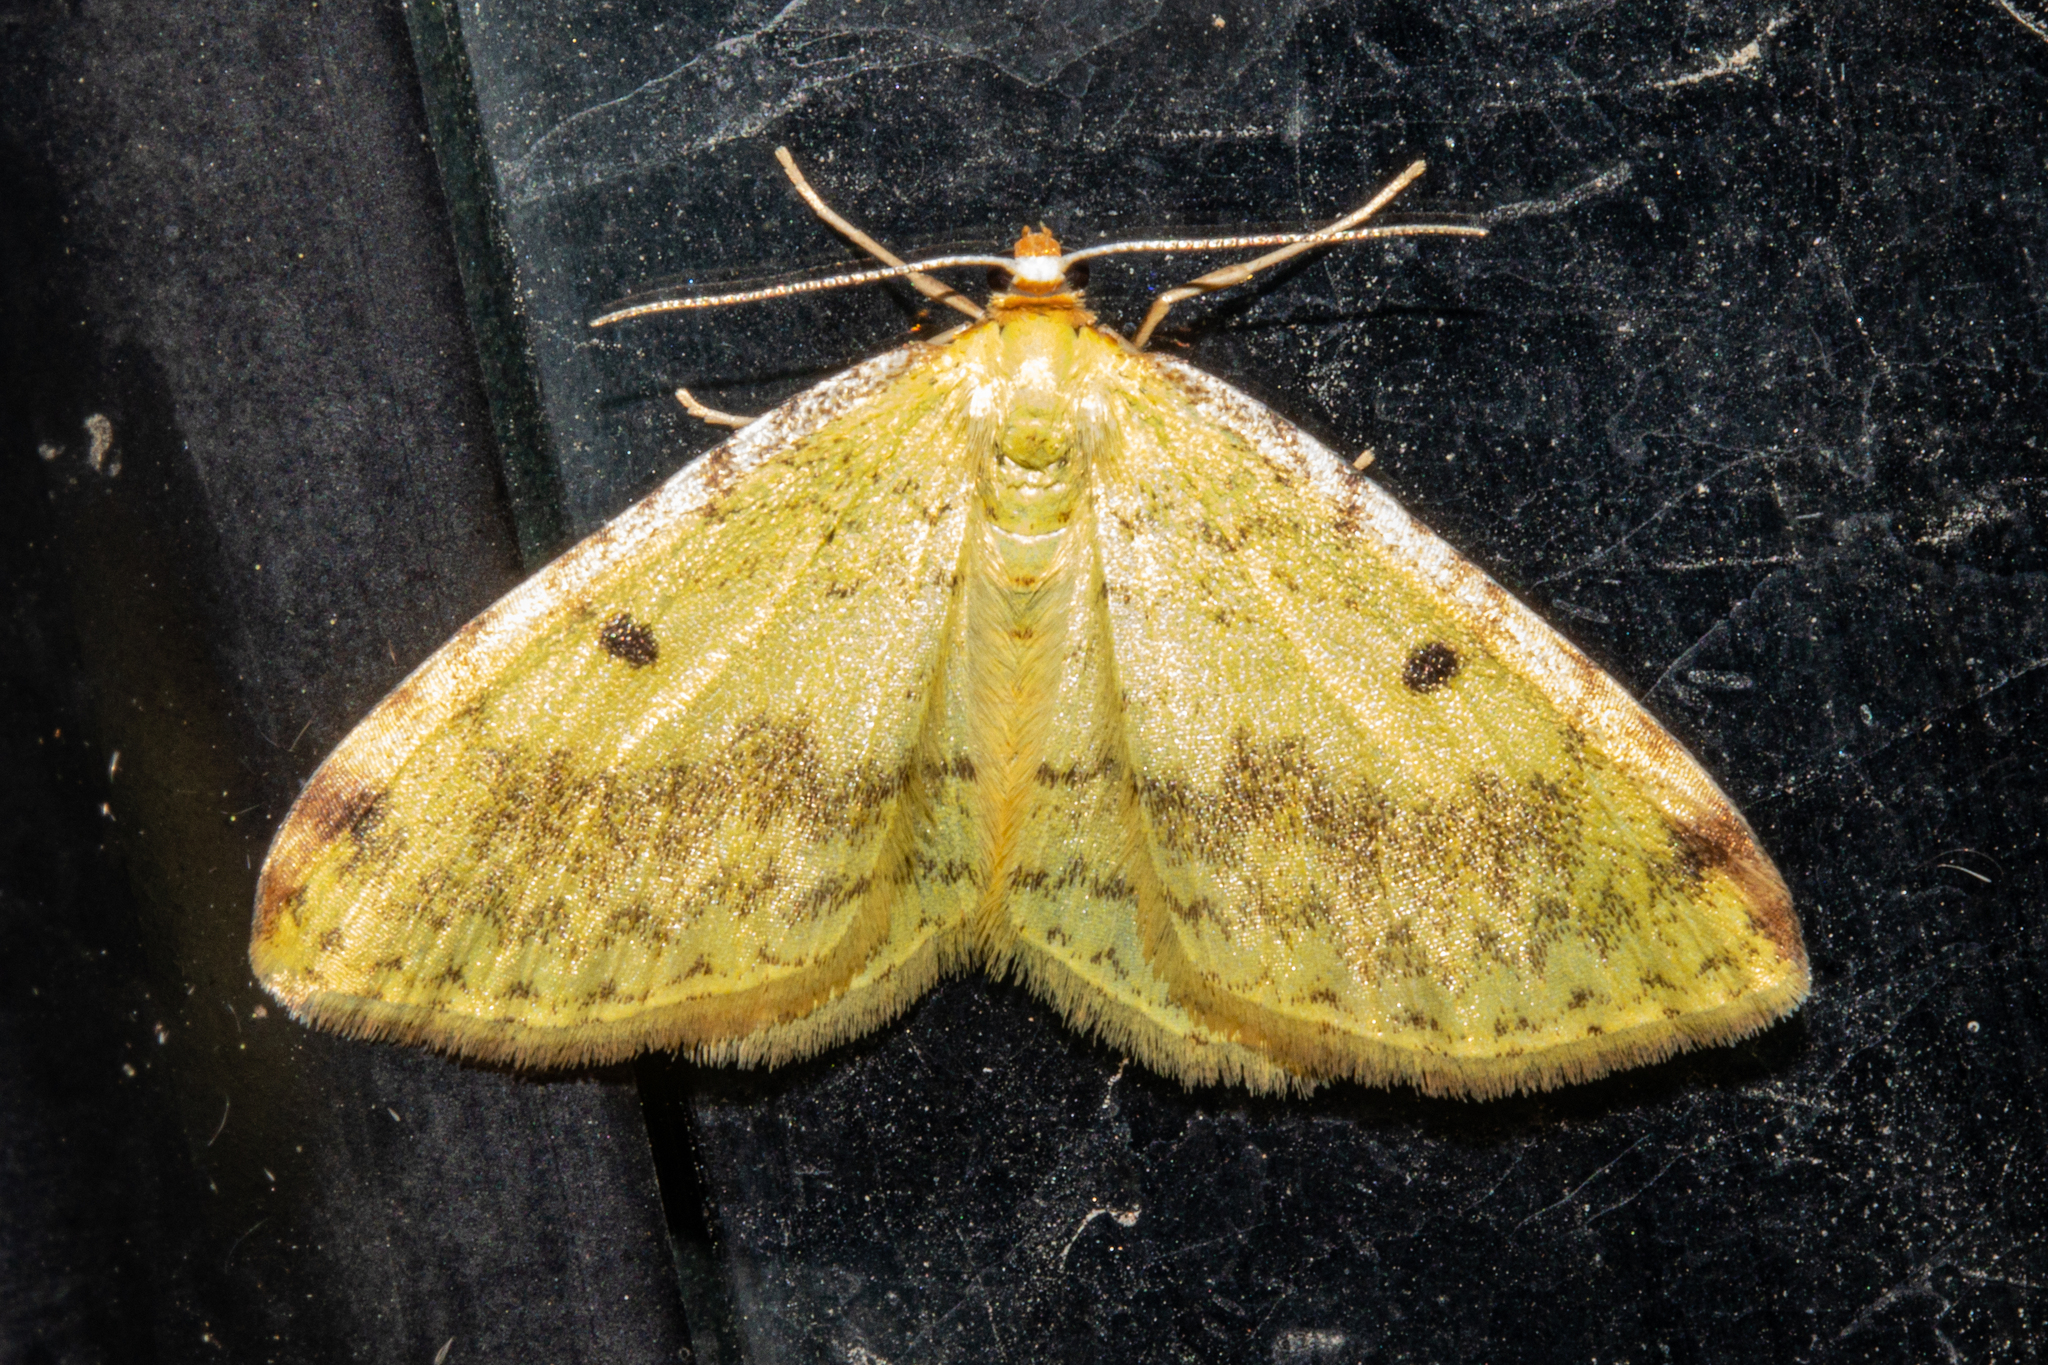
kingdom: Animalia
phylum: Arthropoda
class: Insecta
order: Lepidoptera
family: Geometridae
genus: Epiphryne
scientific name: Epiphryne undosata
